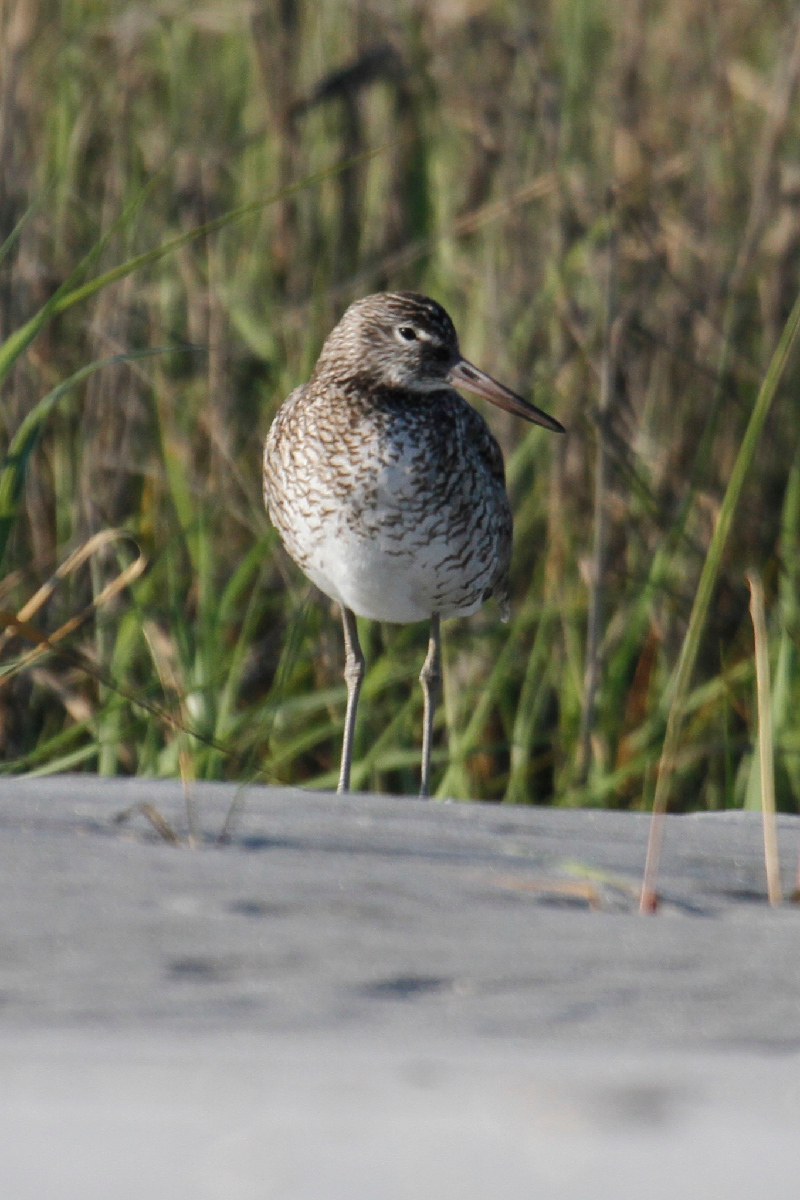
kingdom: Animalia
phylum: Chordata
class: Aves
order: Charadriiformes
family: Scolopacidae
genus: Tringa
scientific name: Tringa semipalmata
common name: Willet
